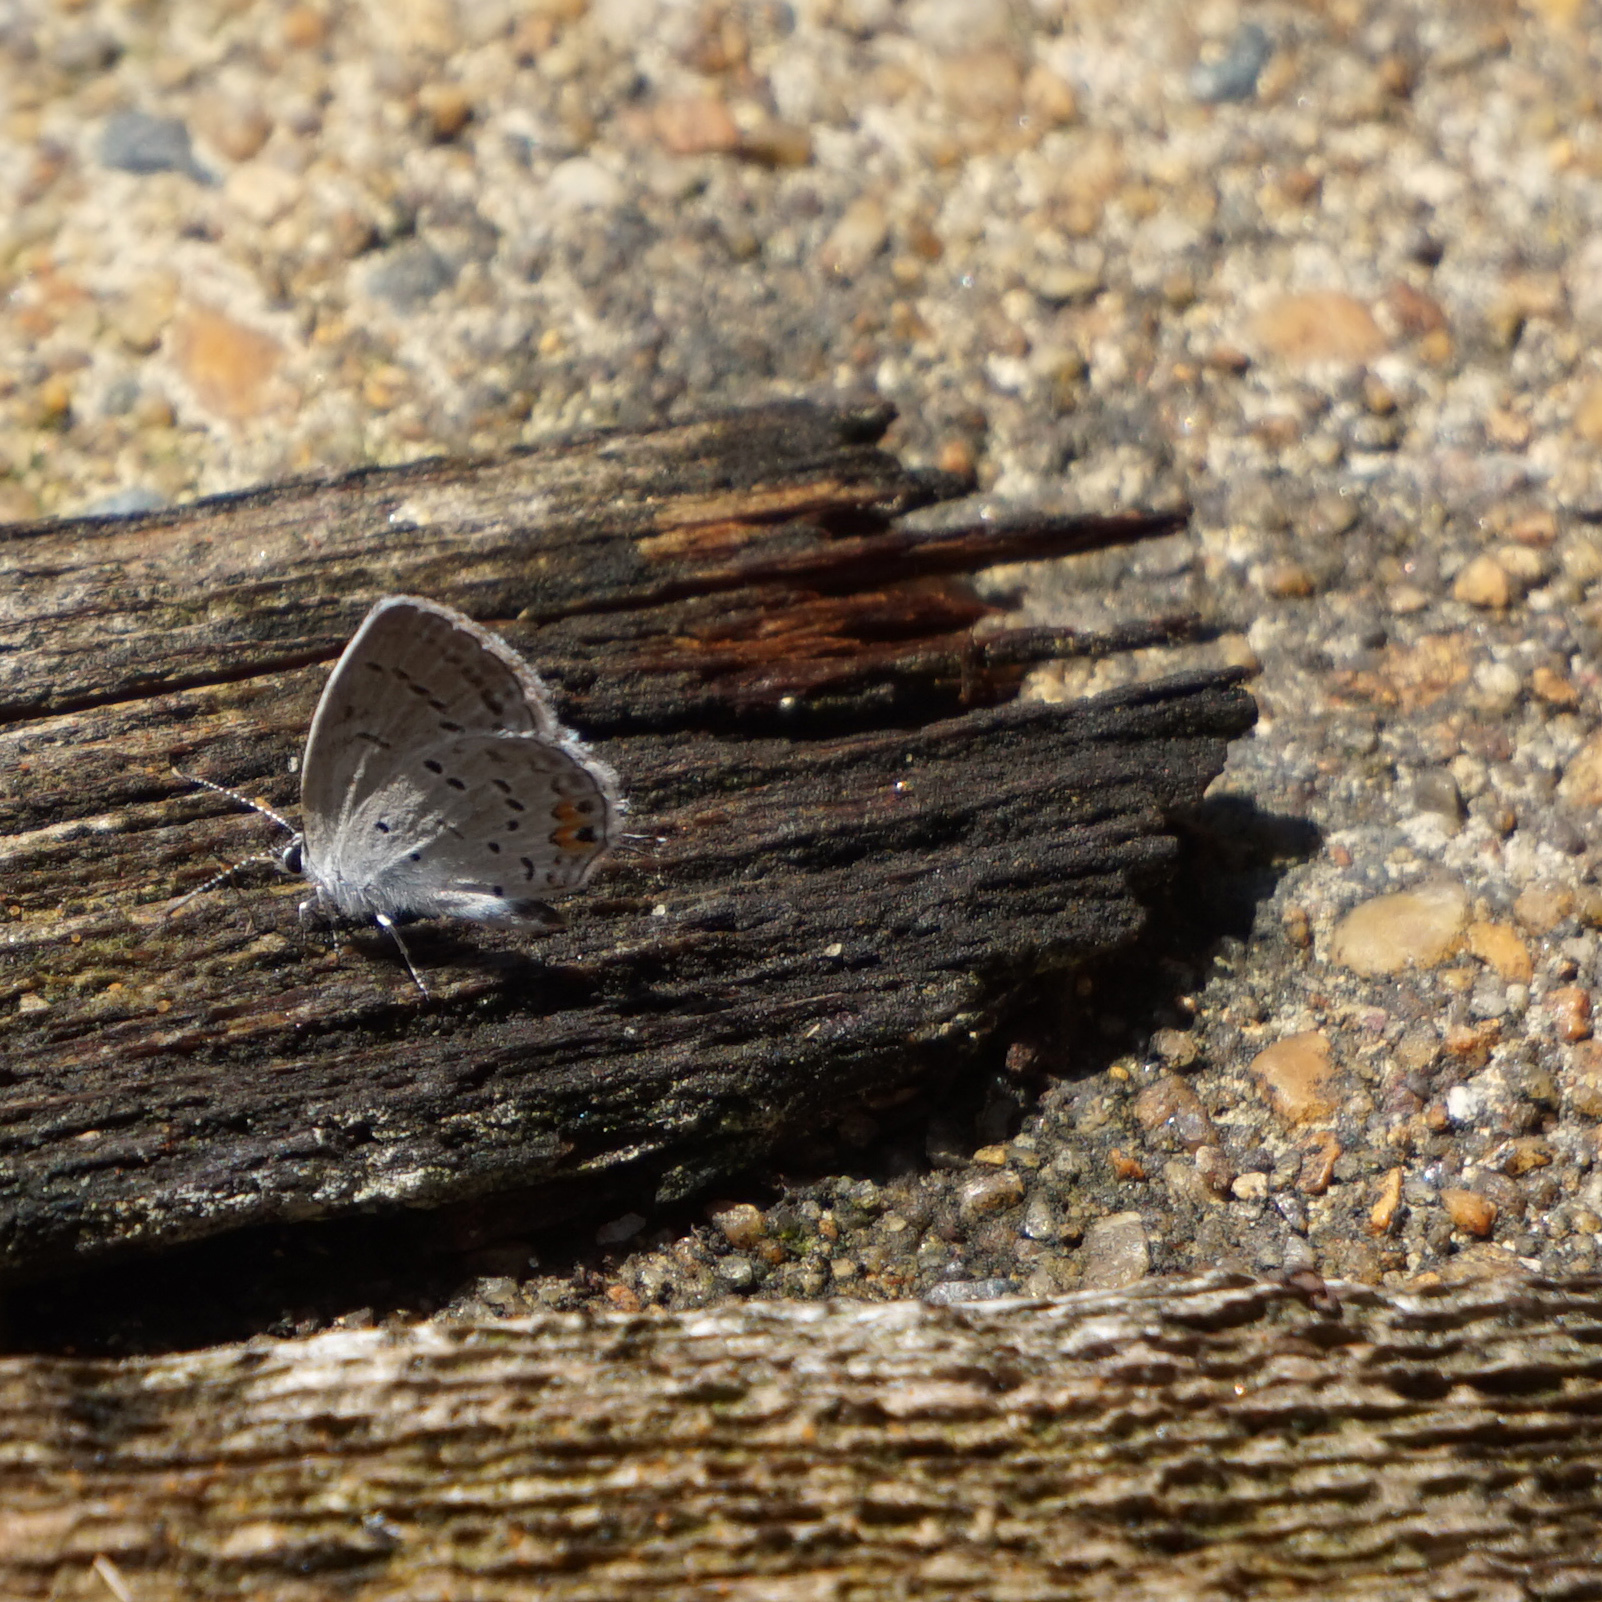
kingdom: Animalia
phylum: Arthropoda
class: Insecta
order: Lepidoptera
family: Lycaenidae
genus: Elkalyce
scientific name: Elkalyce comyntas
